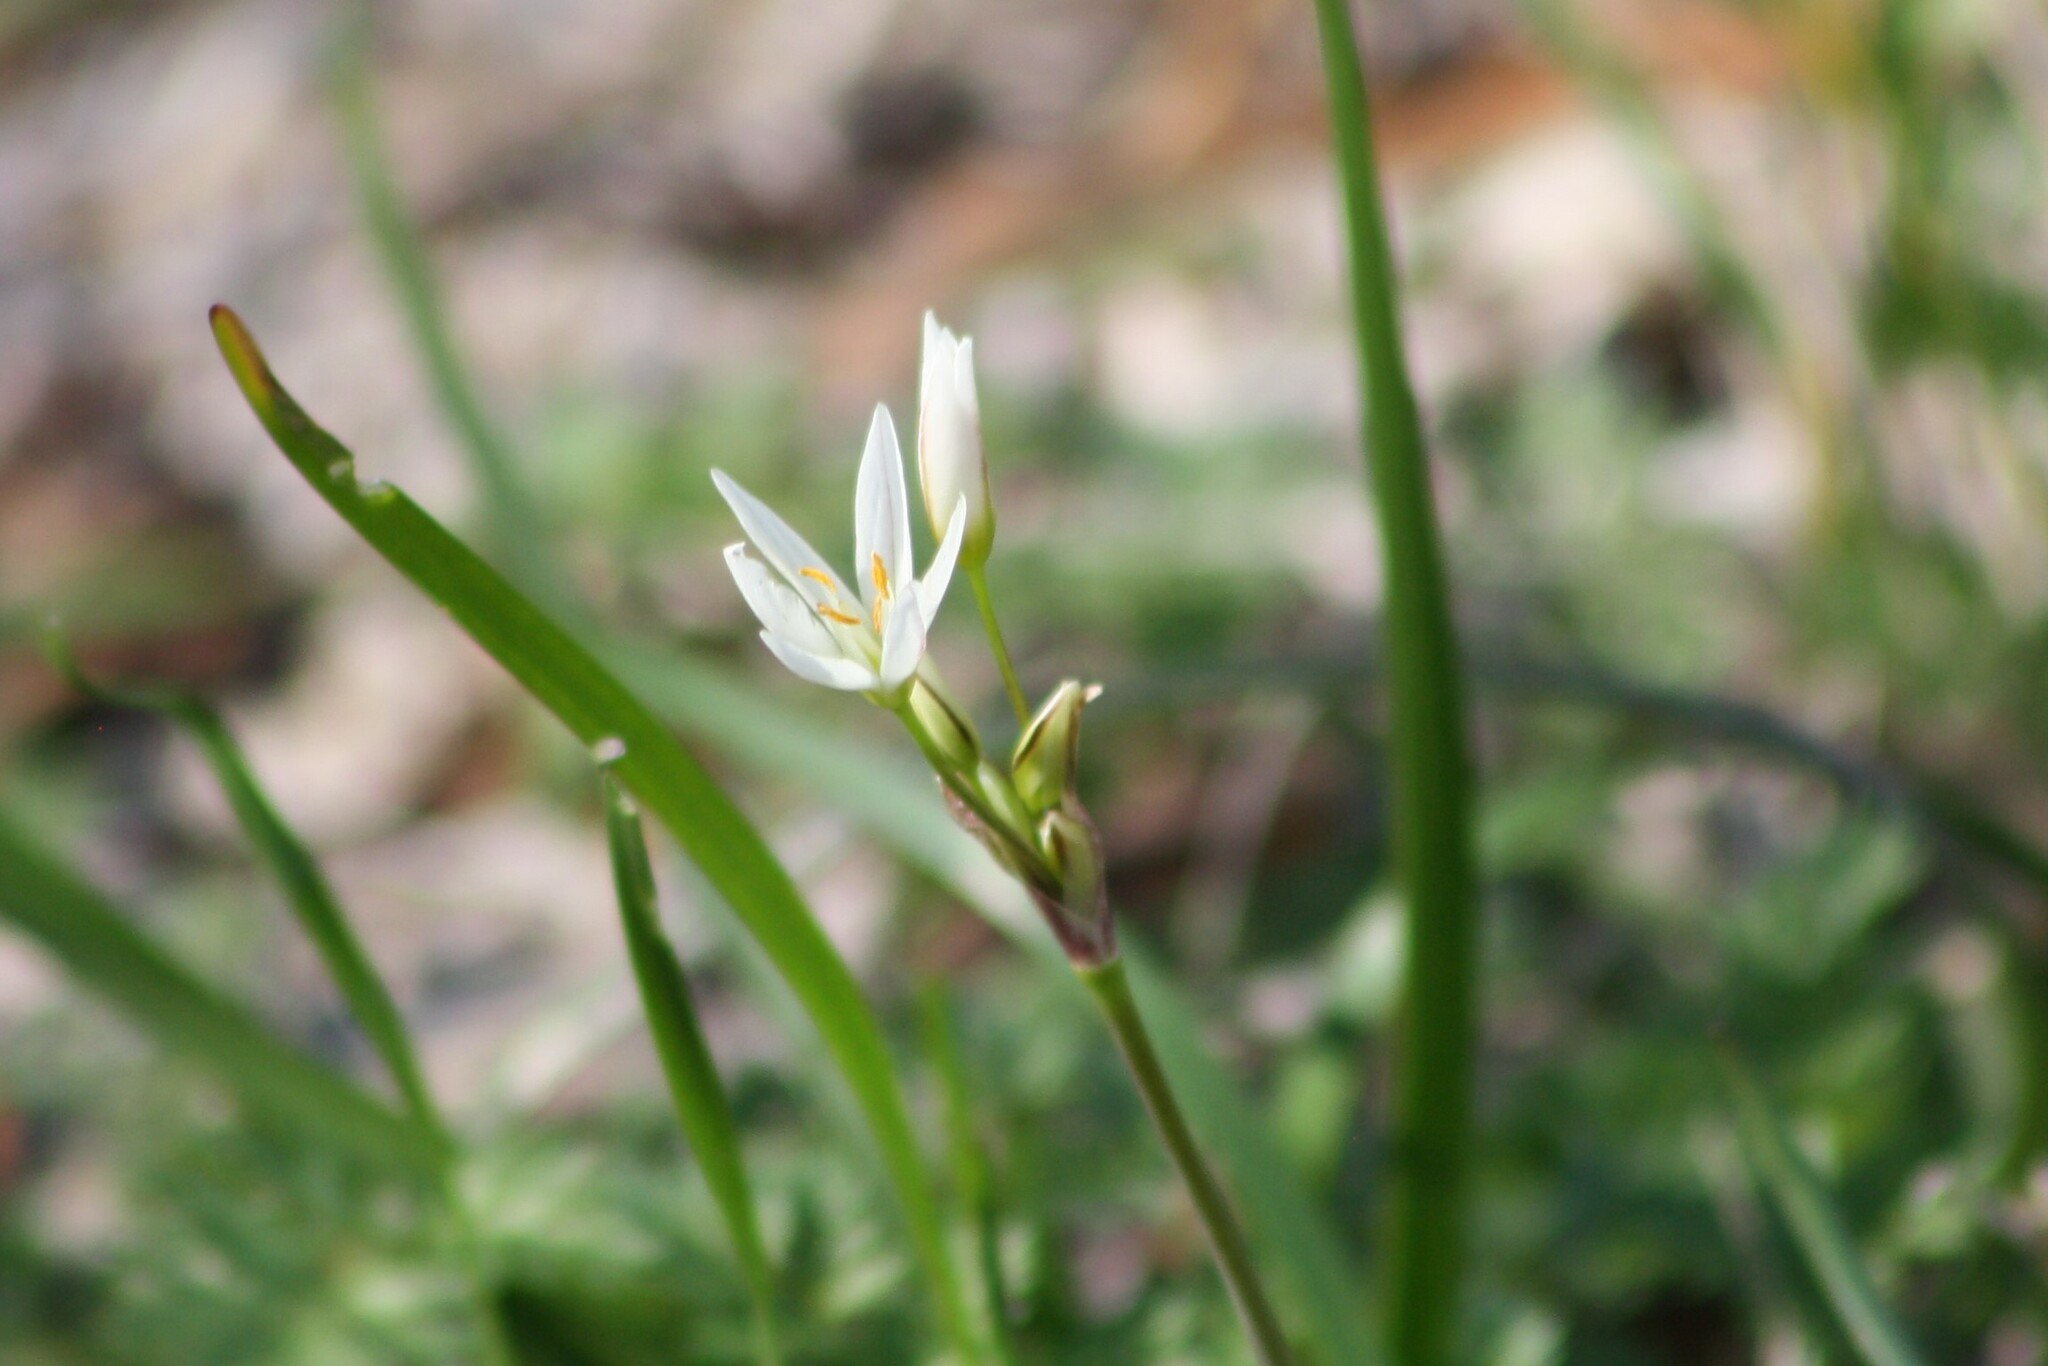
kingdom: Plantae
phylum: Tracheophyta
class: Liliopsida
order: Asparagales
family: Amaryllidaceae
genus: Nothoscordum
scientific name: Nothoscordum bivalve
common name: Crow-poison
